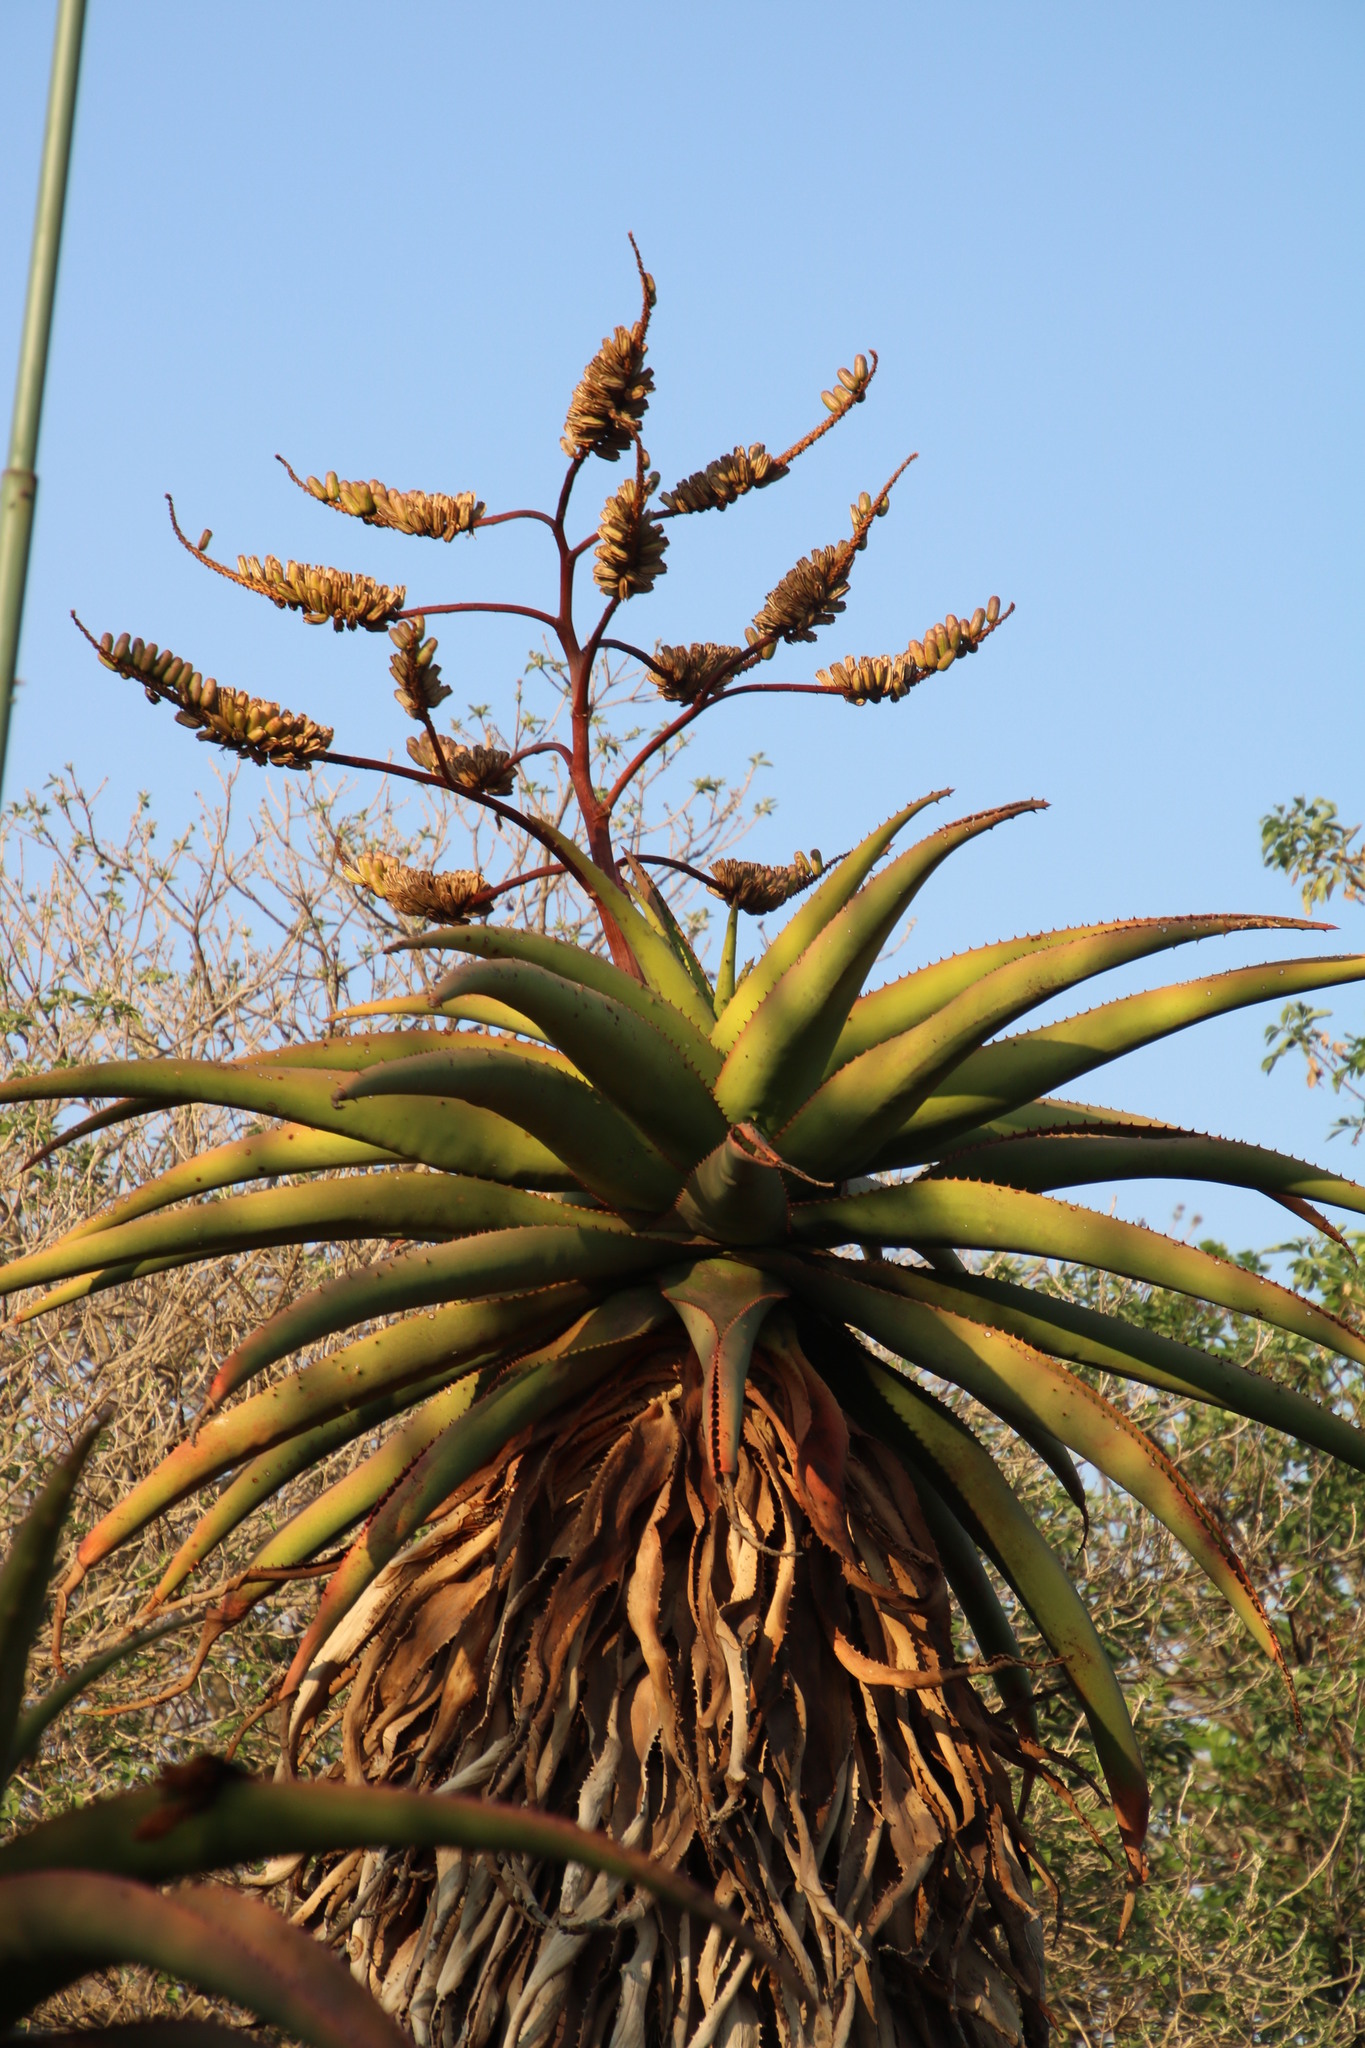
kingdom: Plantae
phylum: Tracheophyta
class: Liliopsida
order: Asparagales
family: Asphodelaceae
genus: Aloe
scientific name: Aloe marlothii
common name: Flat-flowered aloe
